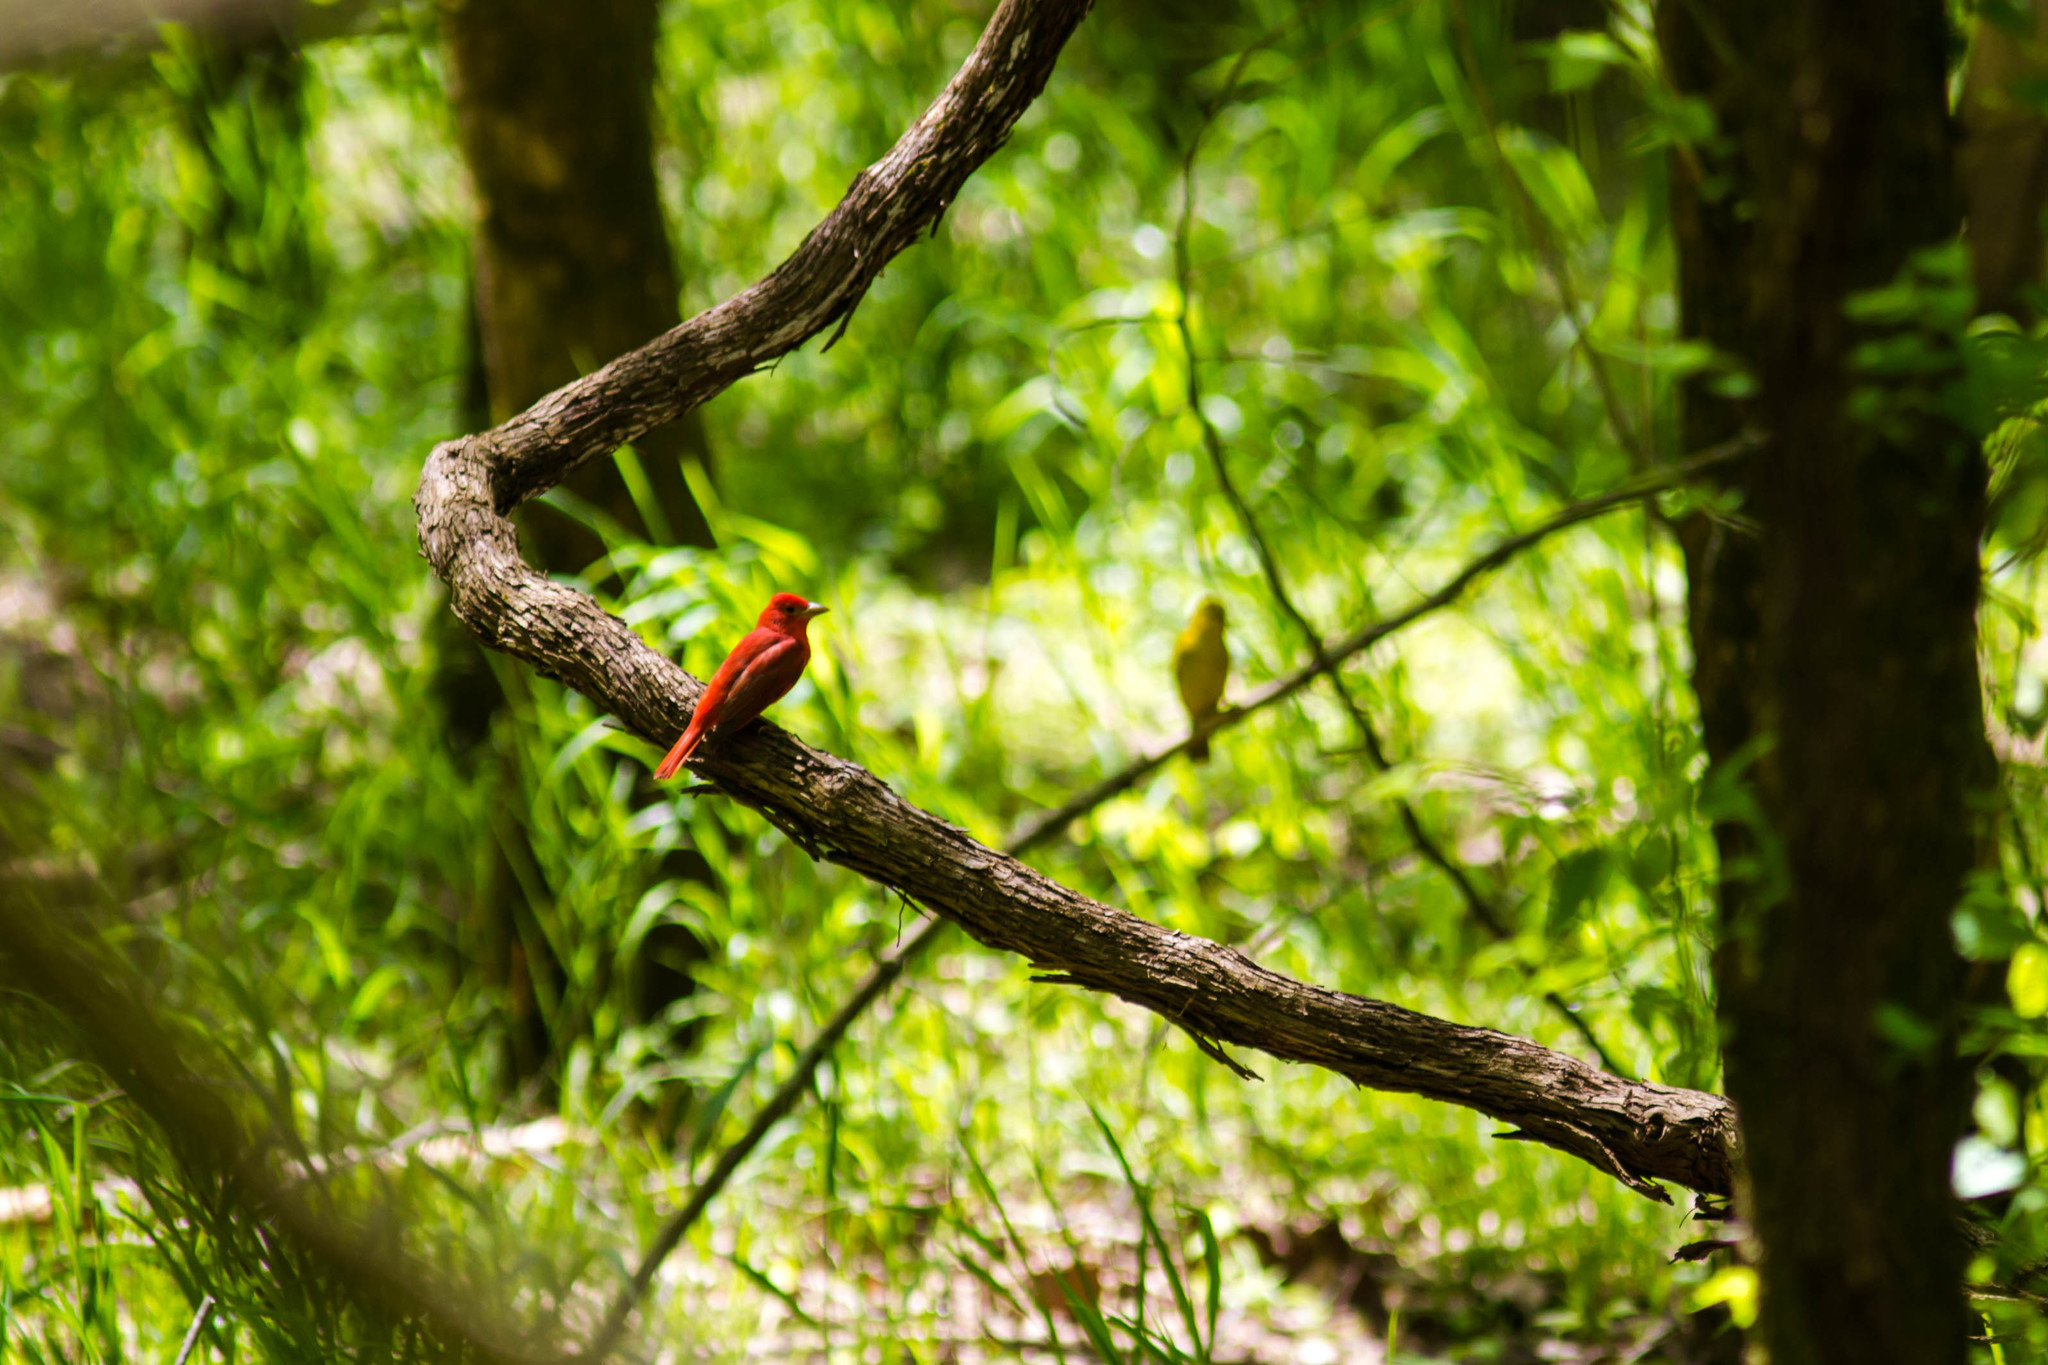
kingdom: Animalia
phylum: Chordata
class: Aves
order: Passeriformes
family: Cardinalidae
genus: Piranga
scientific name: Piranga rubra
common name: Summer tanager
